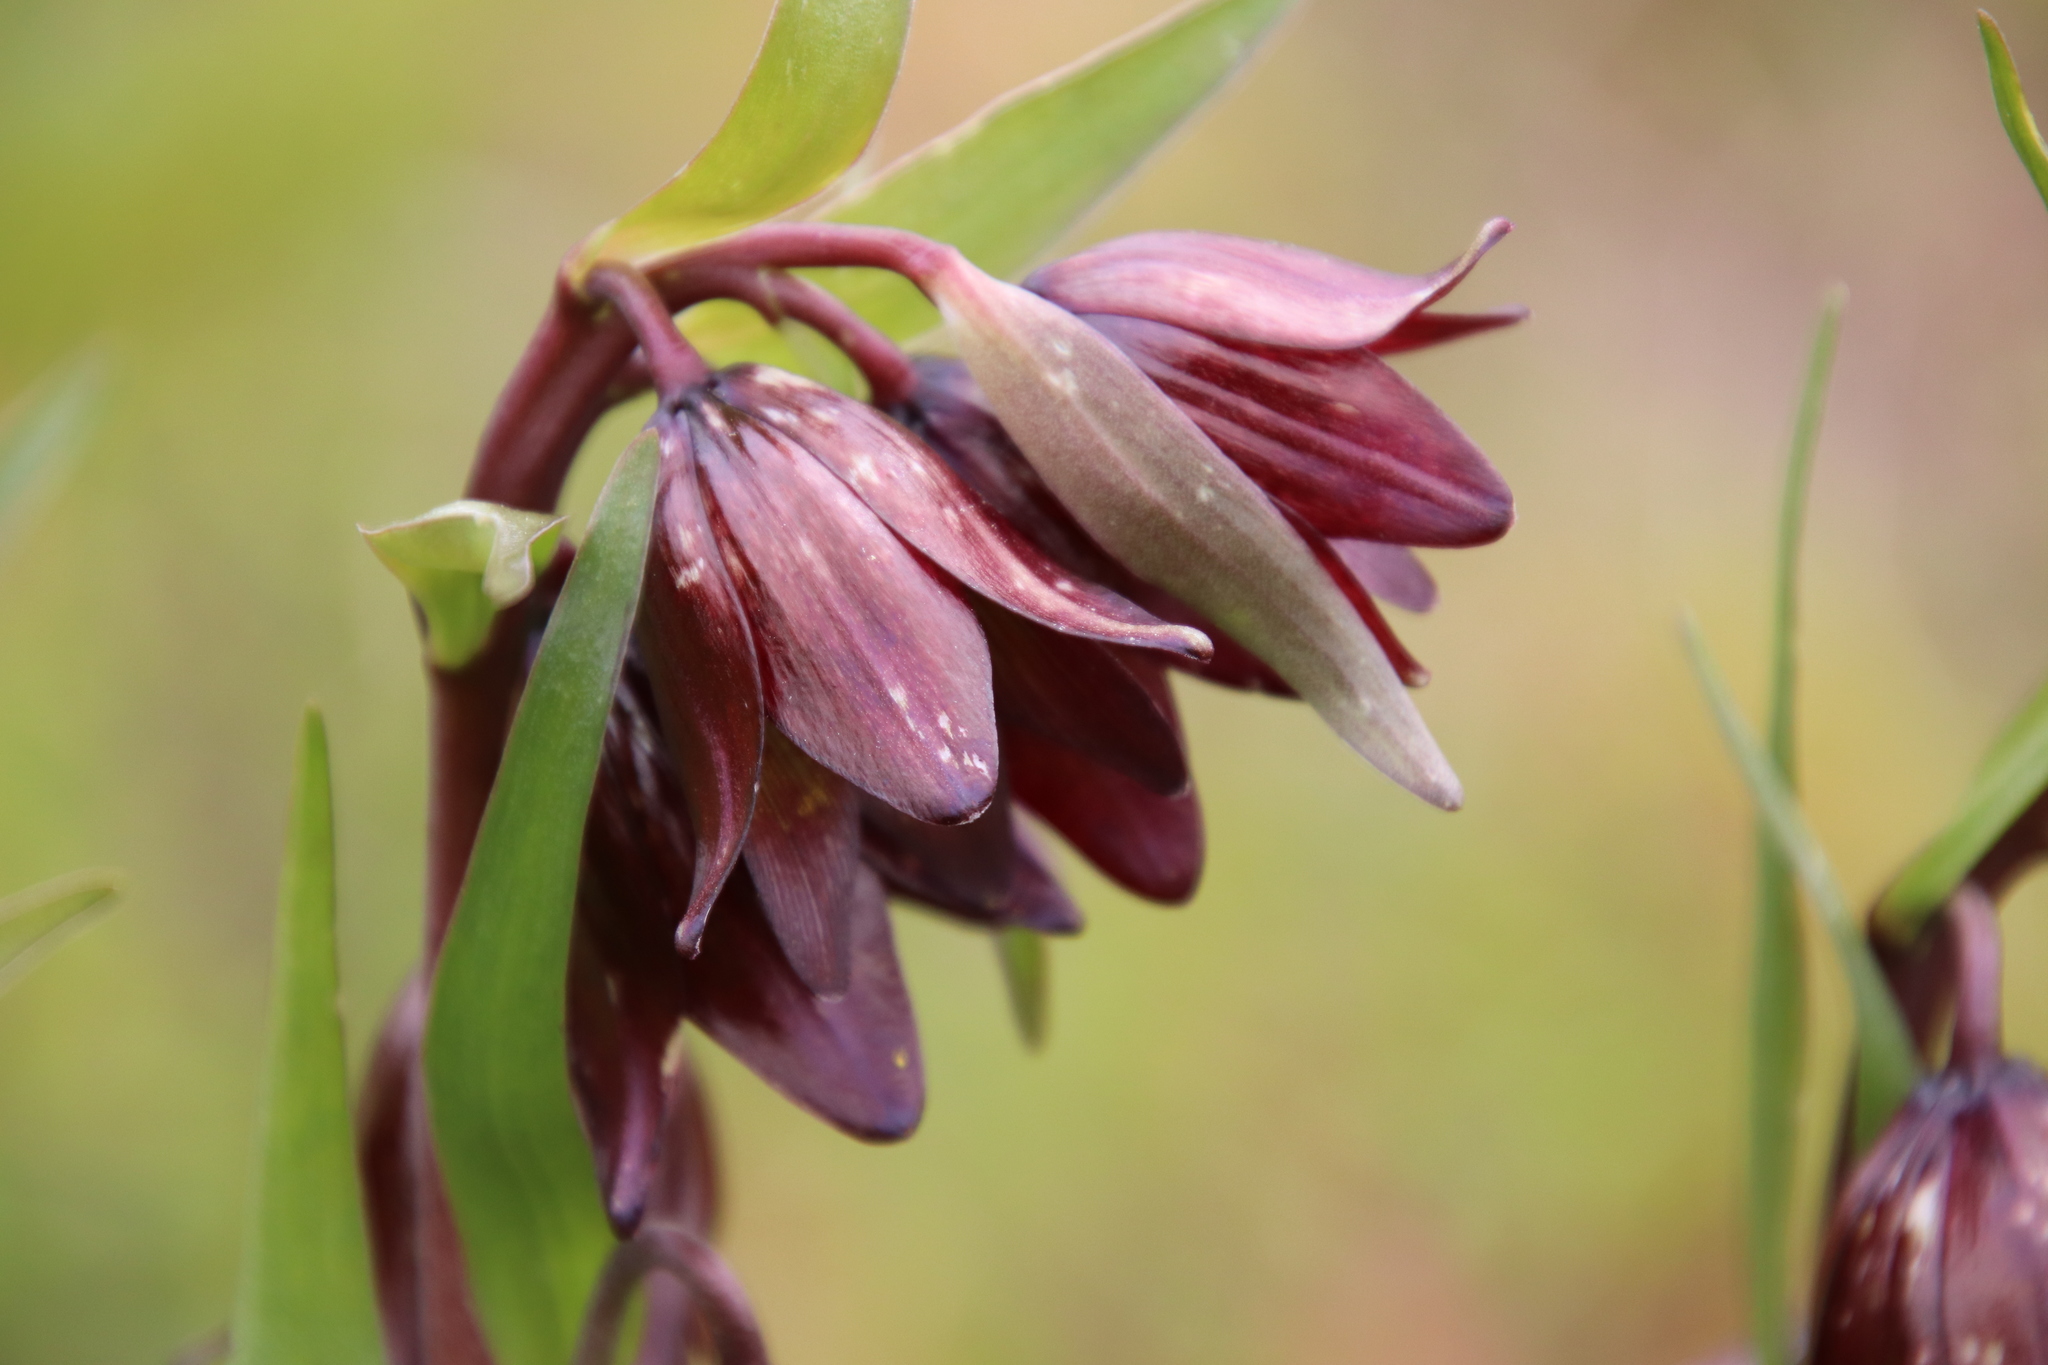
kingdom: Plantae
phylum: Tracheophyta
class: Liliopsida
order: Liliales
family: Liliaceae
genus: Fritillaria
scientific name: Fritillaria biflora
